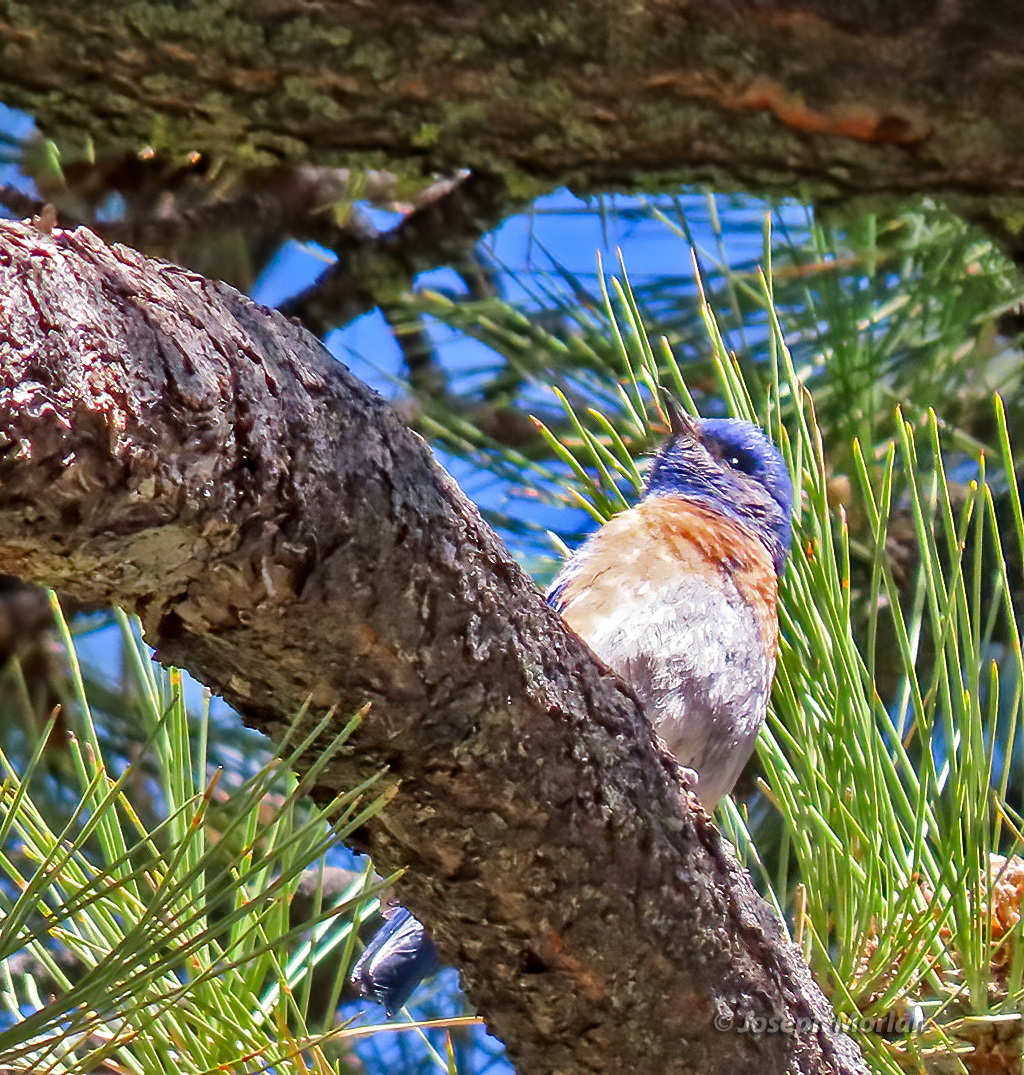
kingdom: Animalia
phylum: Chordata
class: Aves
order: Passeriformes
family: Turdidae
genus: Sialia
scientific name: Sialia mexicana
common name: Western bluebird
